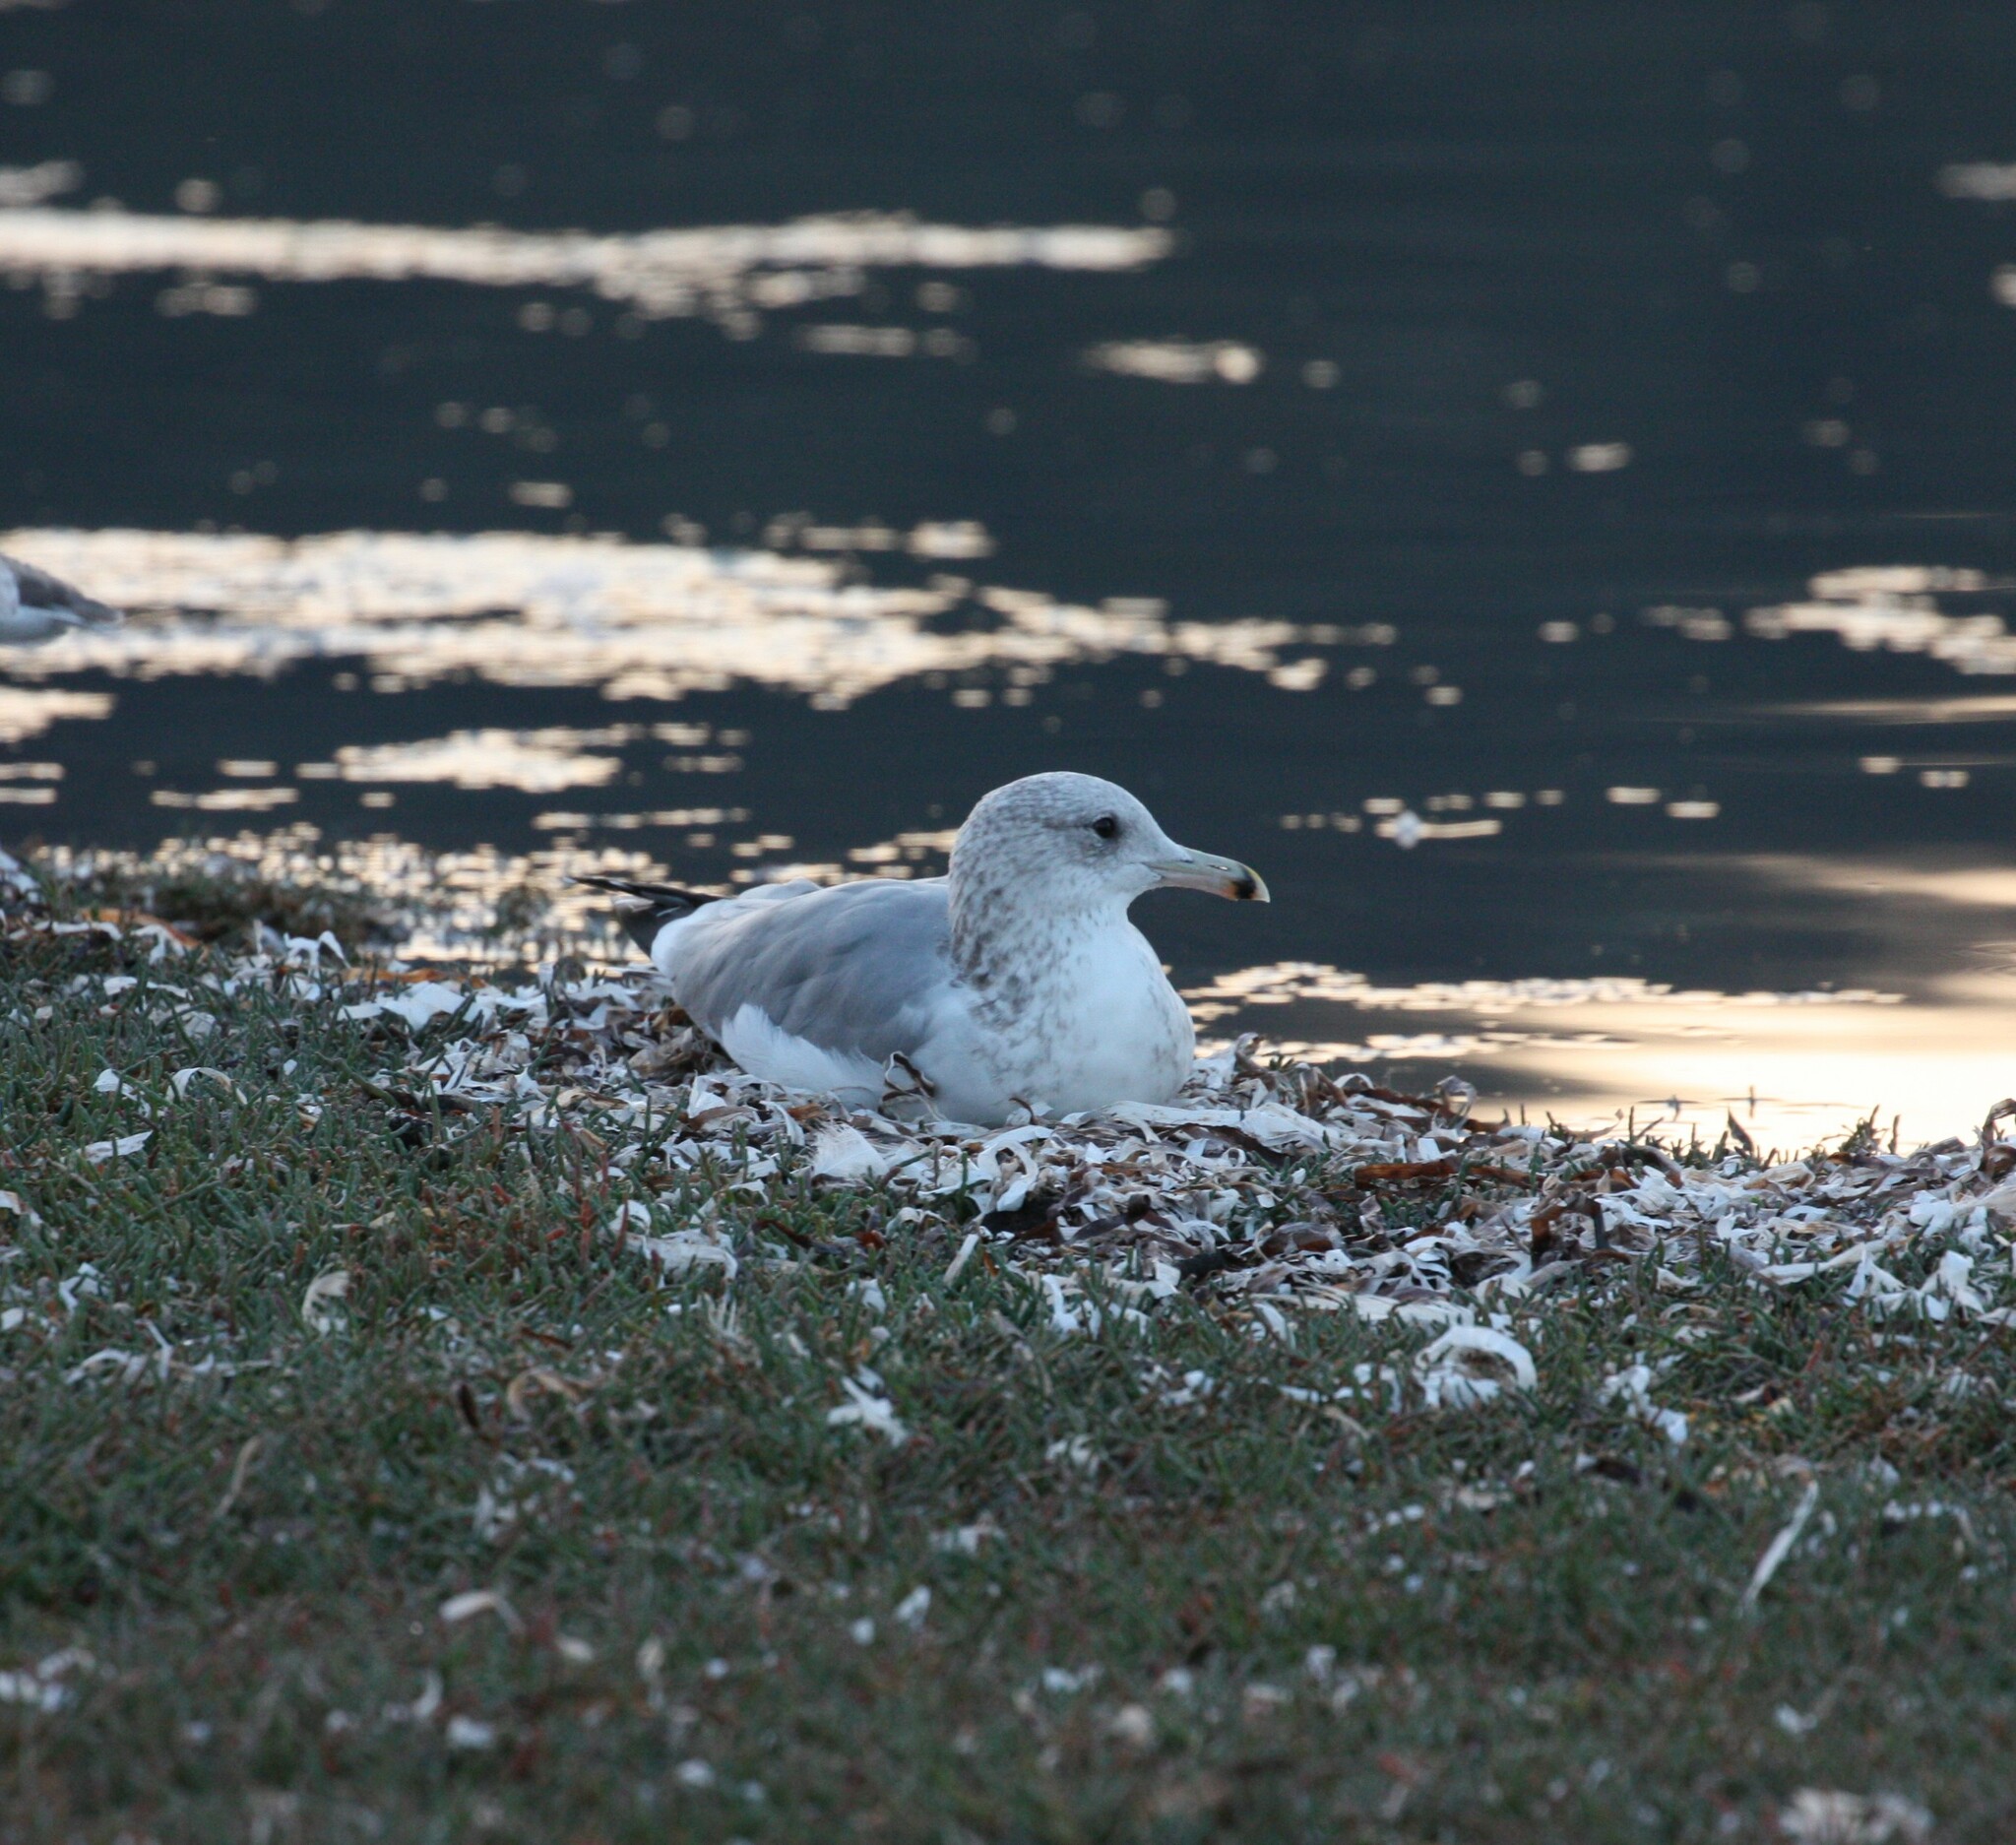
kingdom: Animalia
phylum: Chordata
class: Aves
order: Charadriiformes
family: Laridae
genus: Larus
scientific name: Larus californicus
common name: California gull
